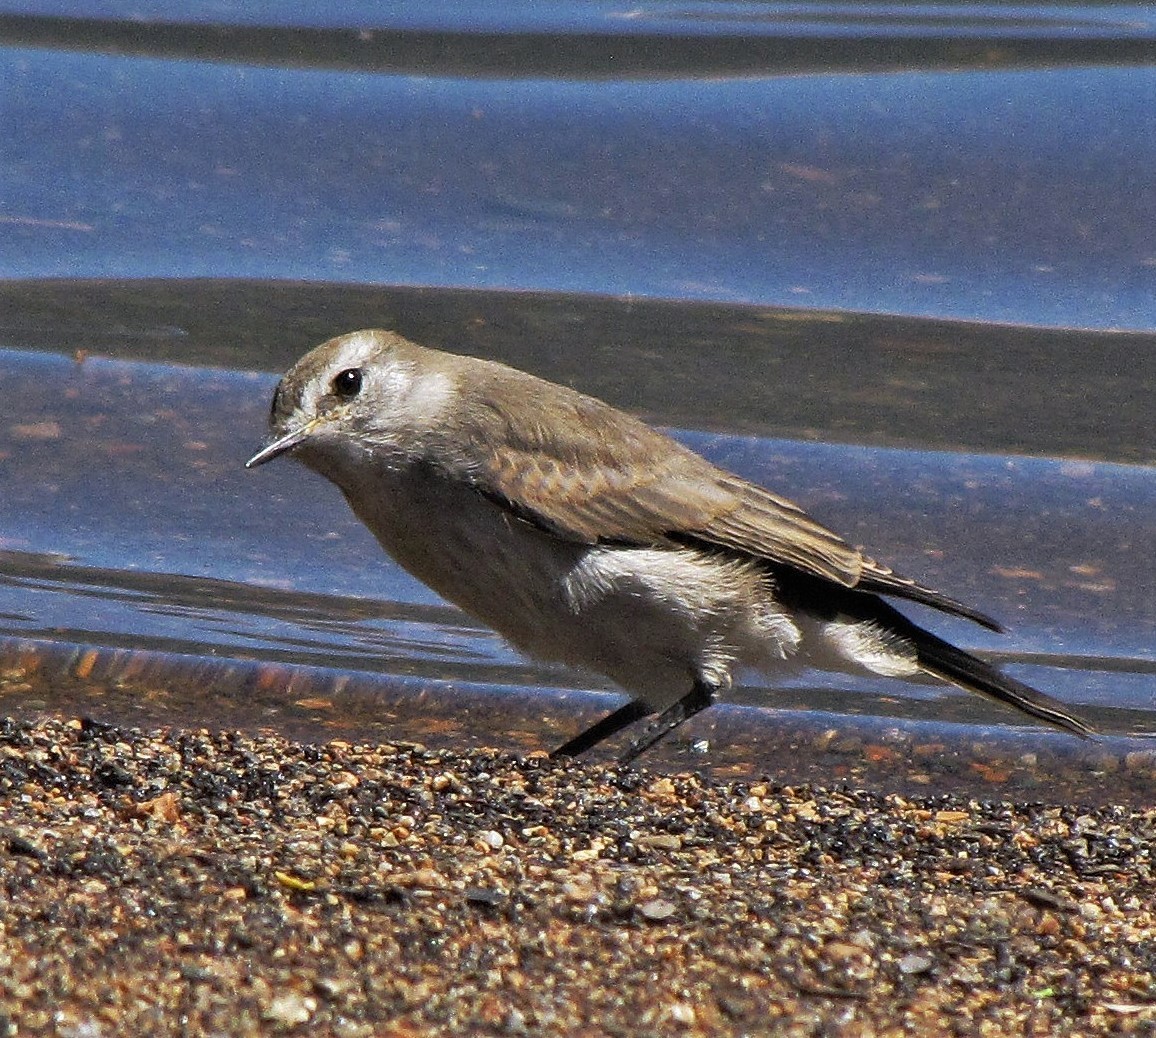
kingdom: Animalia
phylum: Chordata
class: Aves
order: Passeriformes
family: Tyrannidae
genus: Muscisaxicola
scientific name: Muscisaxicola albilora
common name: White-browed ground tyrant
